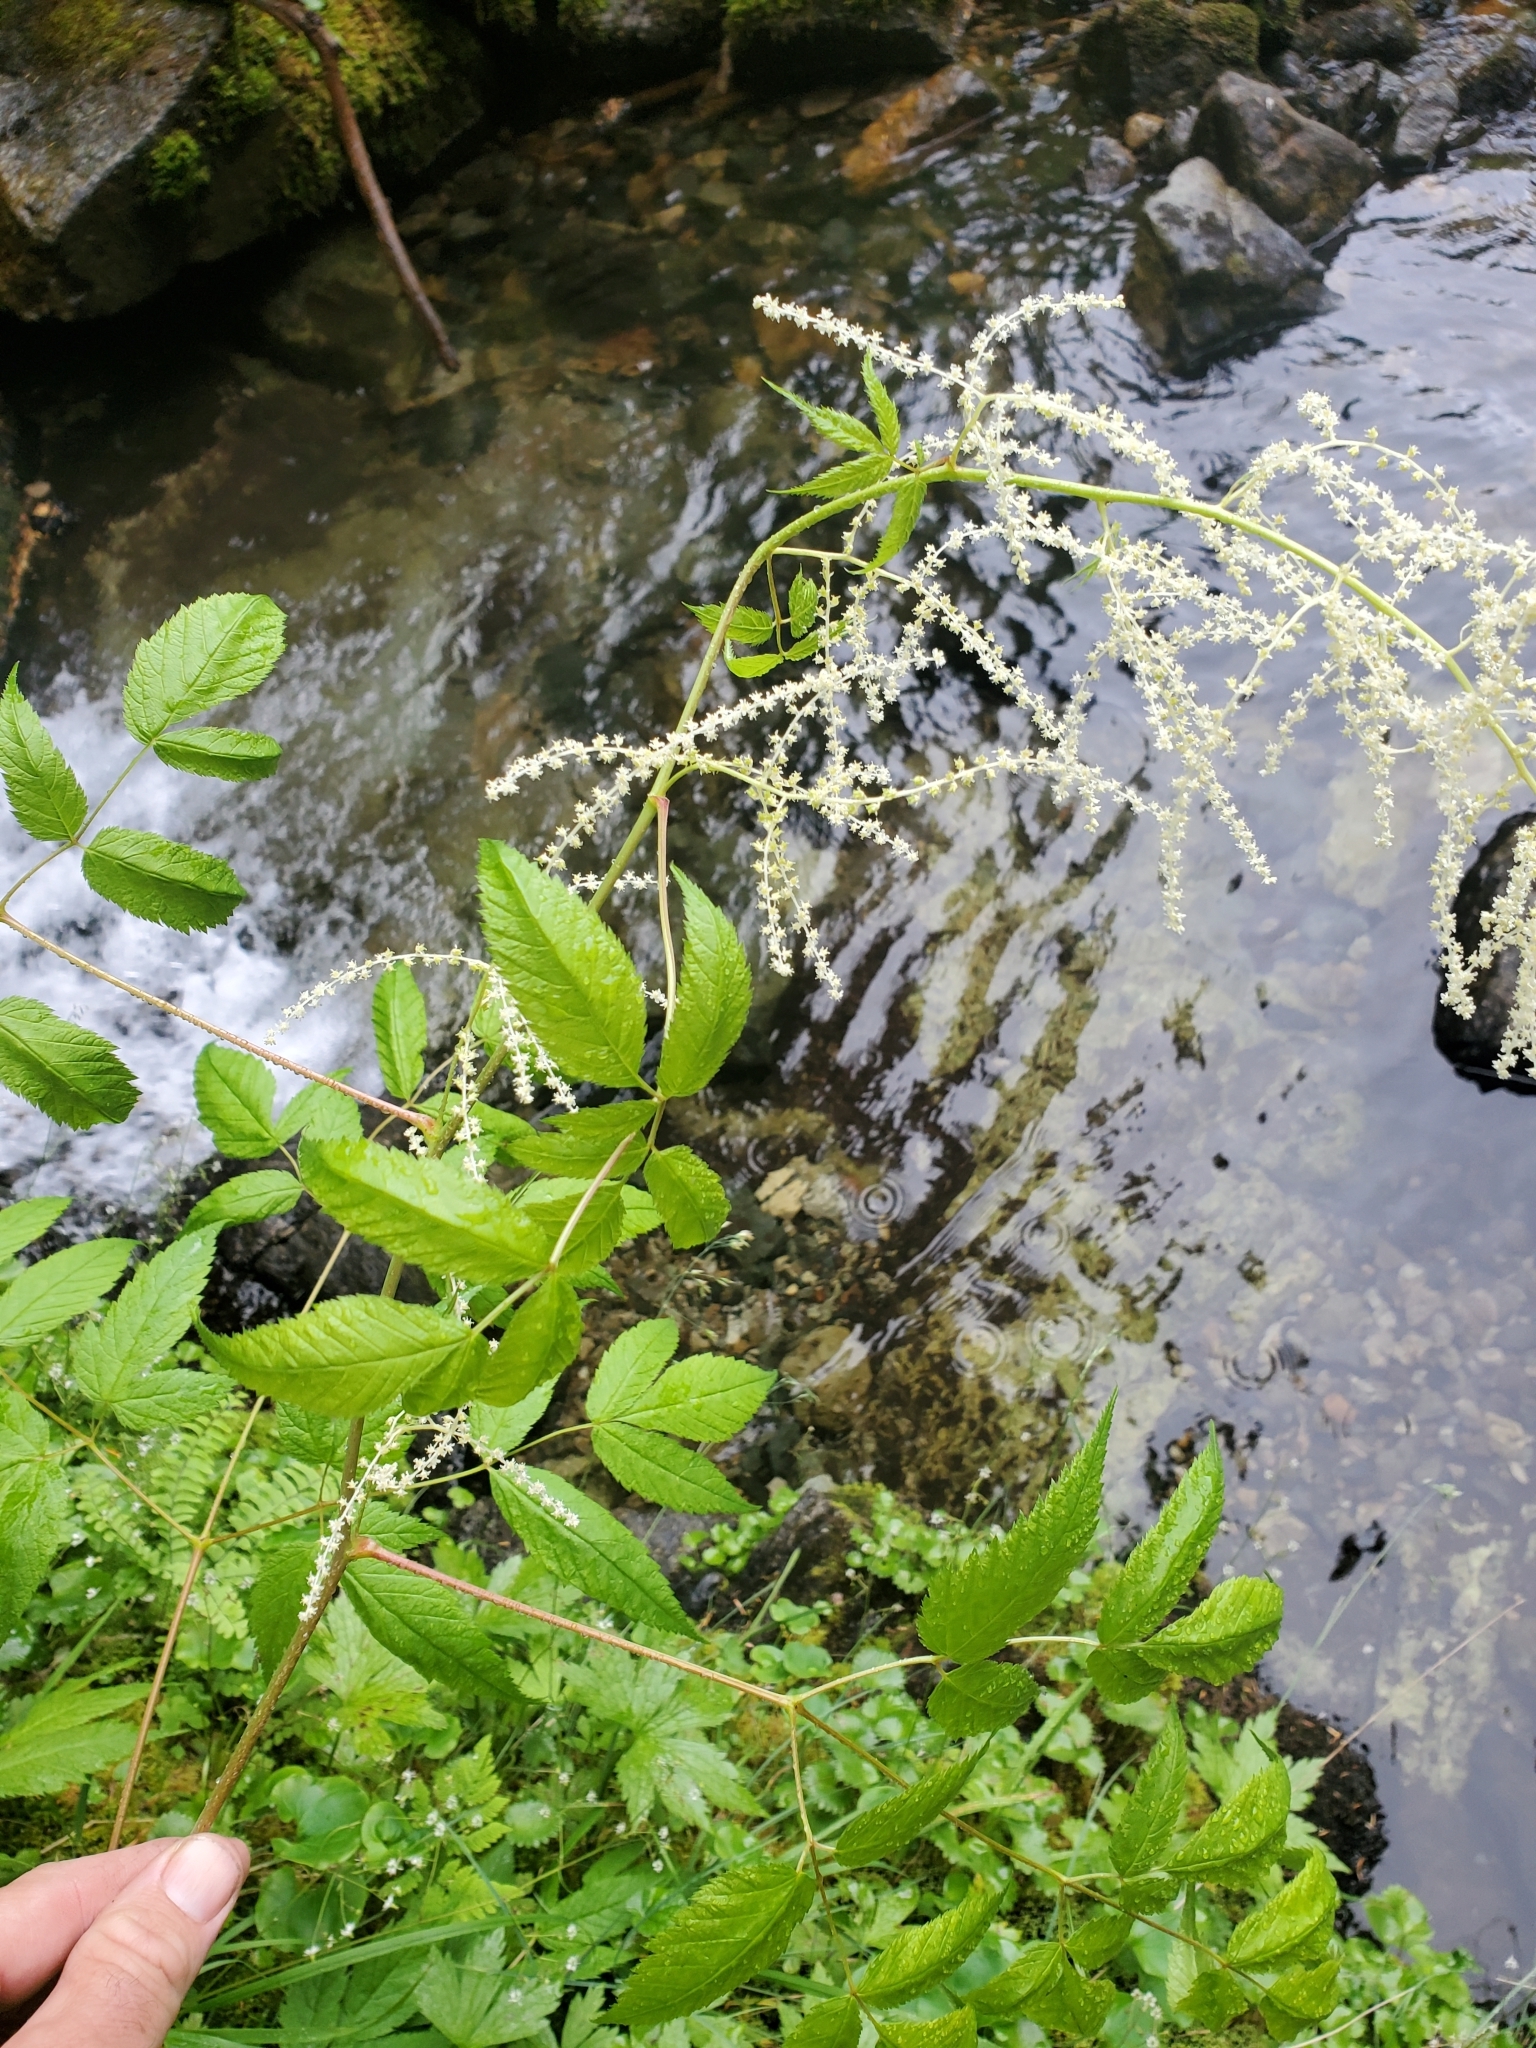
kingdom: Plantae
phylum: Tracheophyta
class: Magnoliopsida
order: Rosales
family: Rosaceae
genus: Aruncus
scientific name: Aruncus dioicus
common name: Buck's-beard
